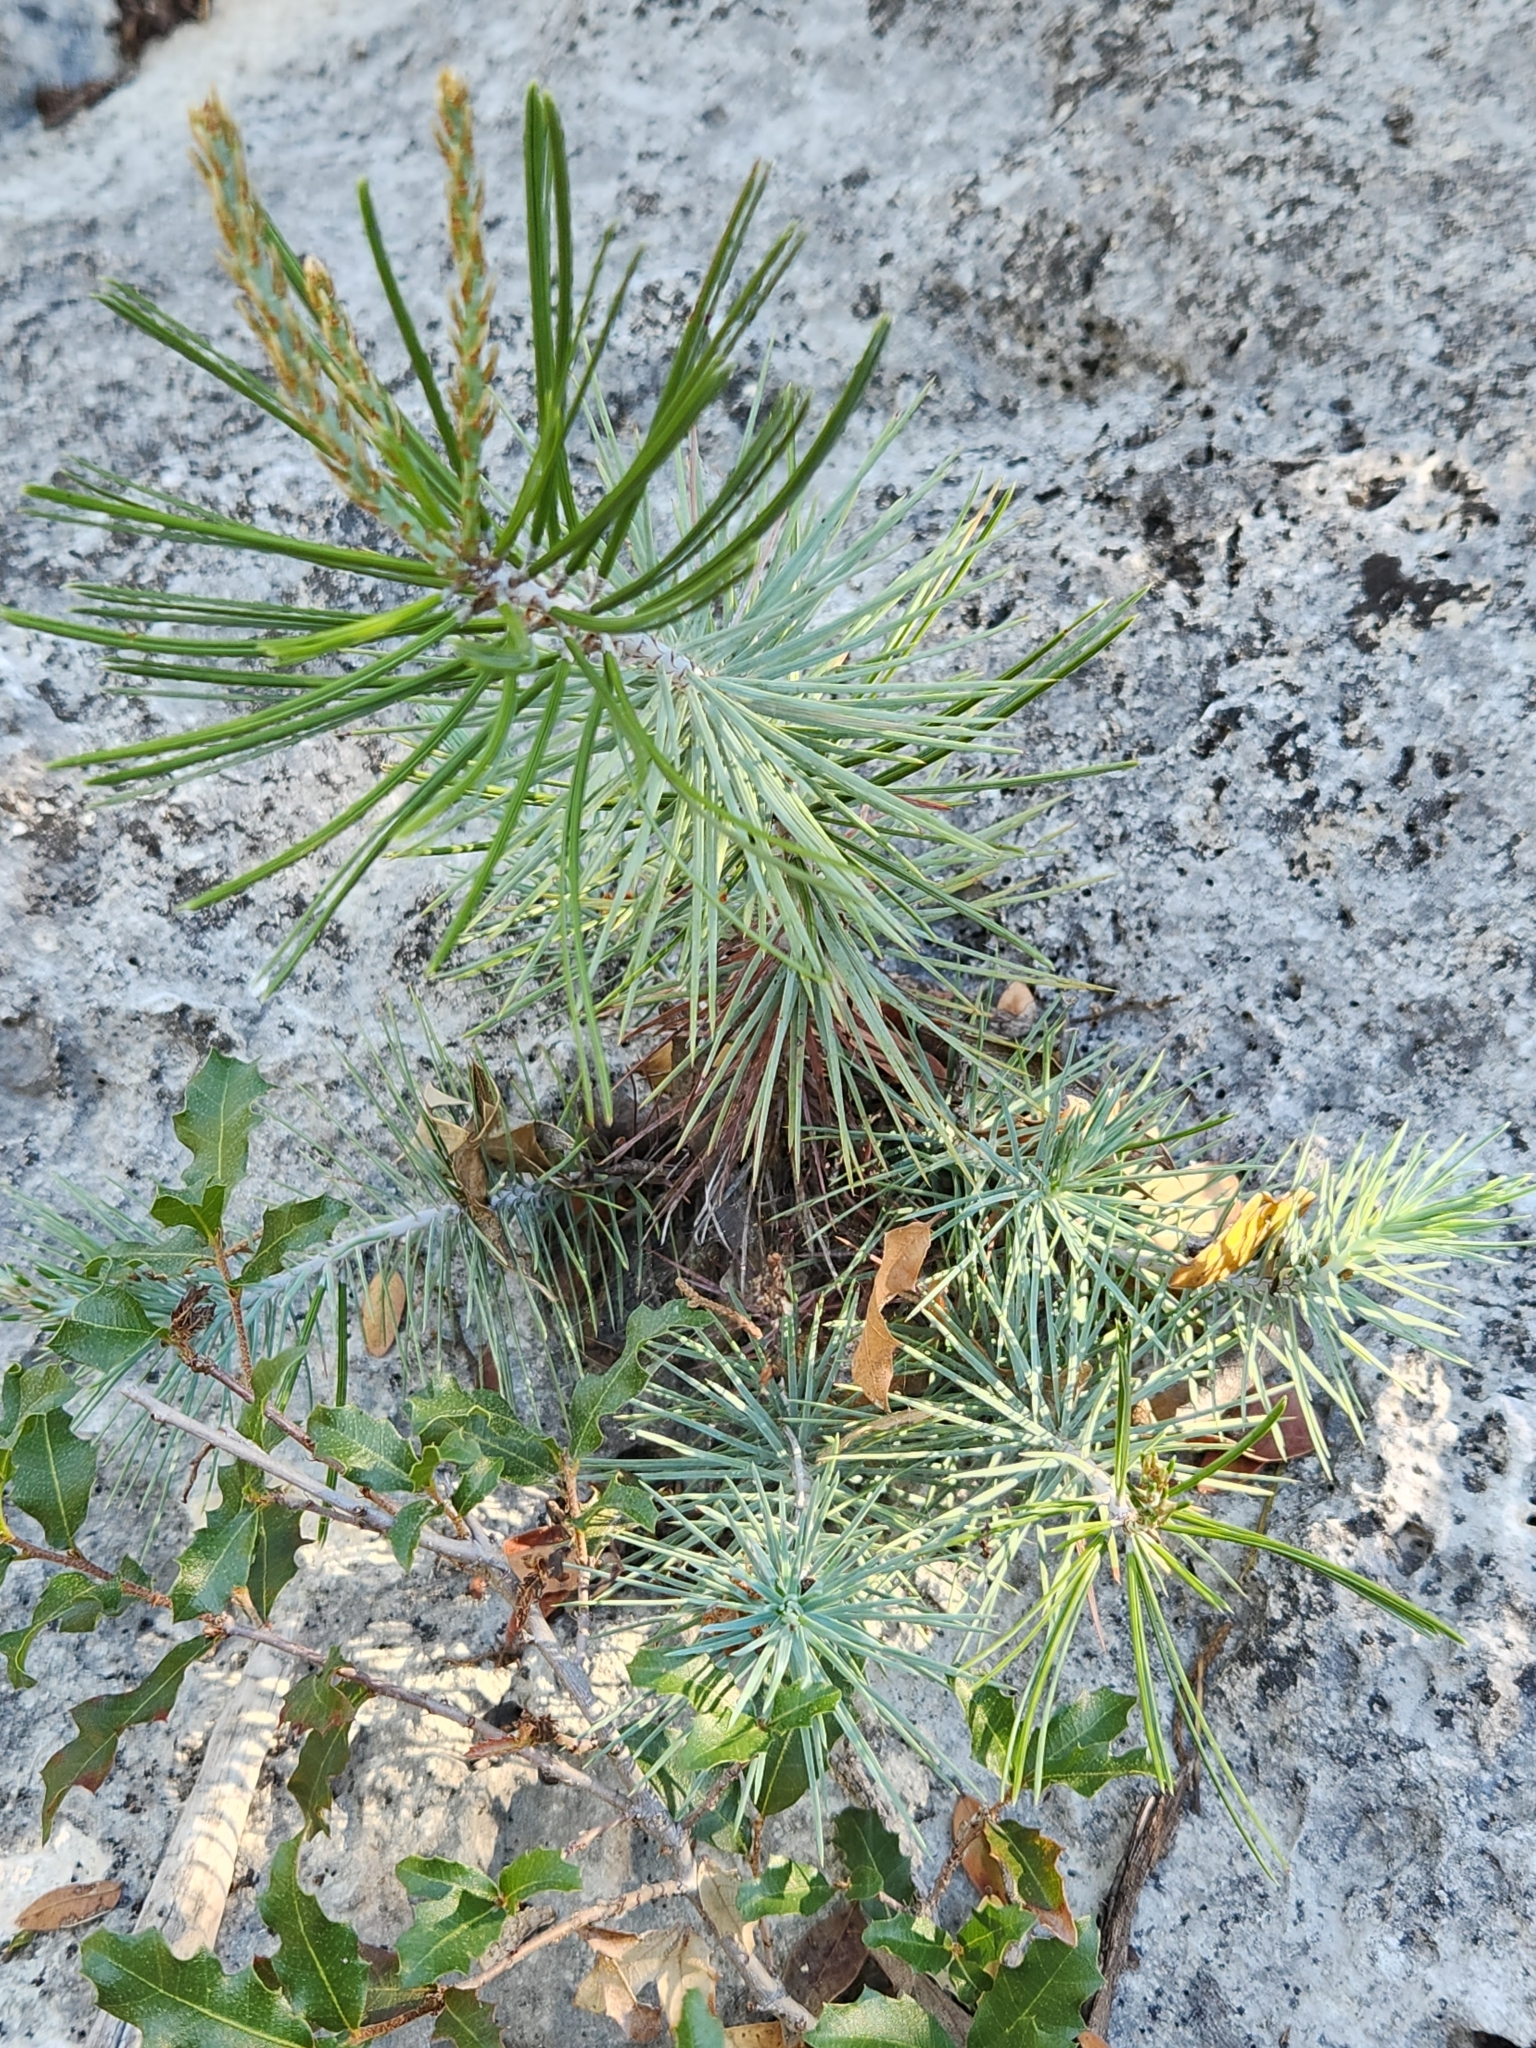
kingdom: Plantae
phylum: Tracheophyta
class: Pinopsida
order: Pinales
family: Pinaceae
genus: Pinus
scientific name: Pinus remota
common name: Nut pine
